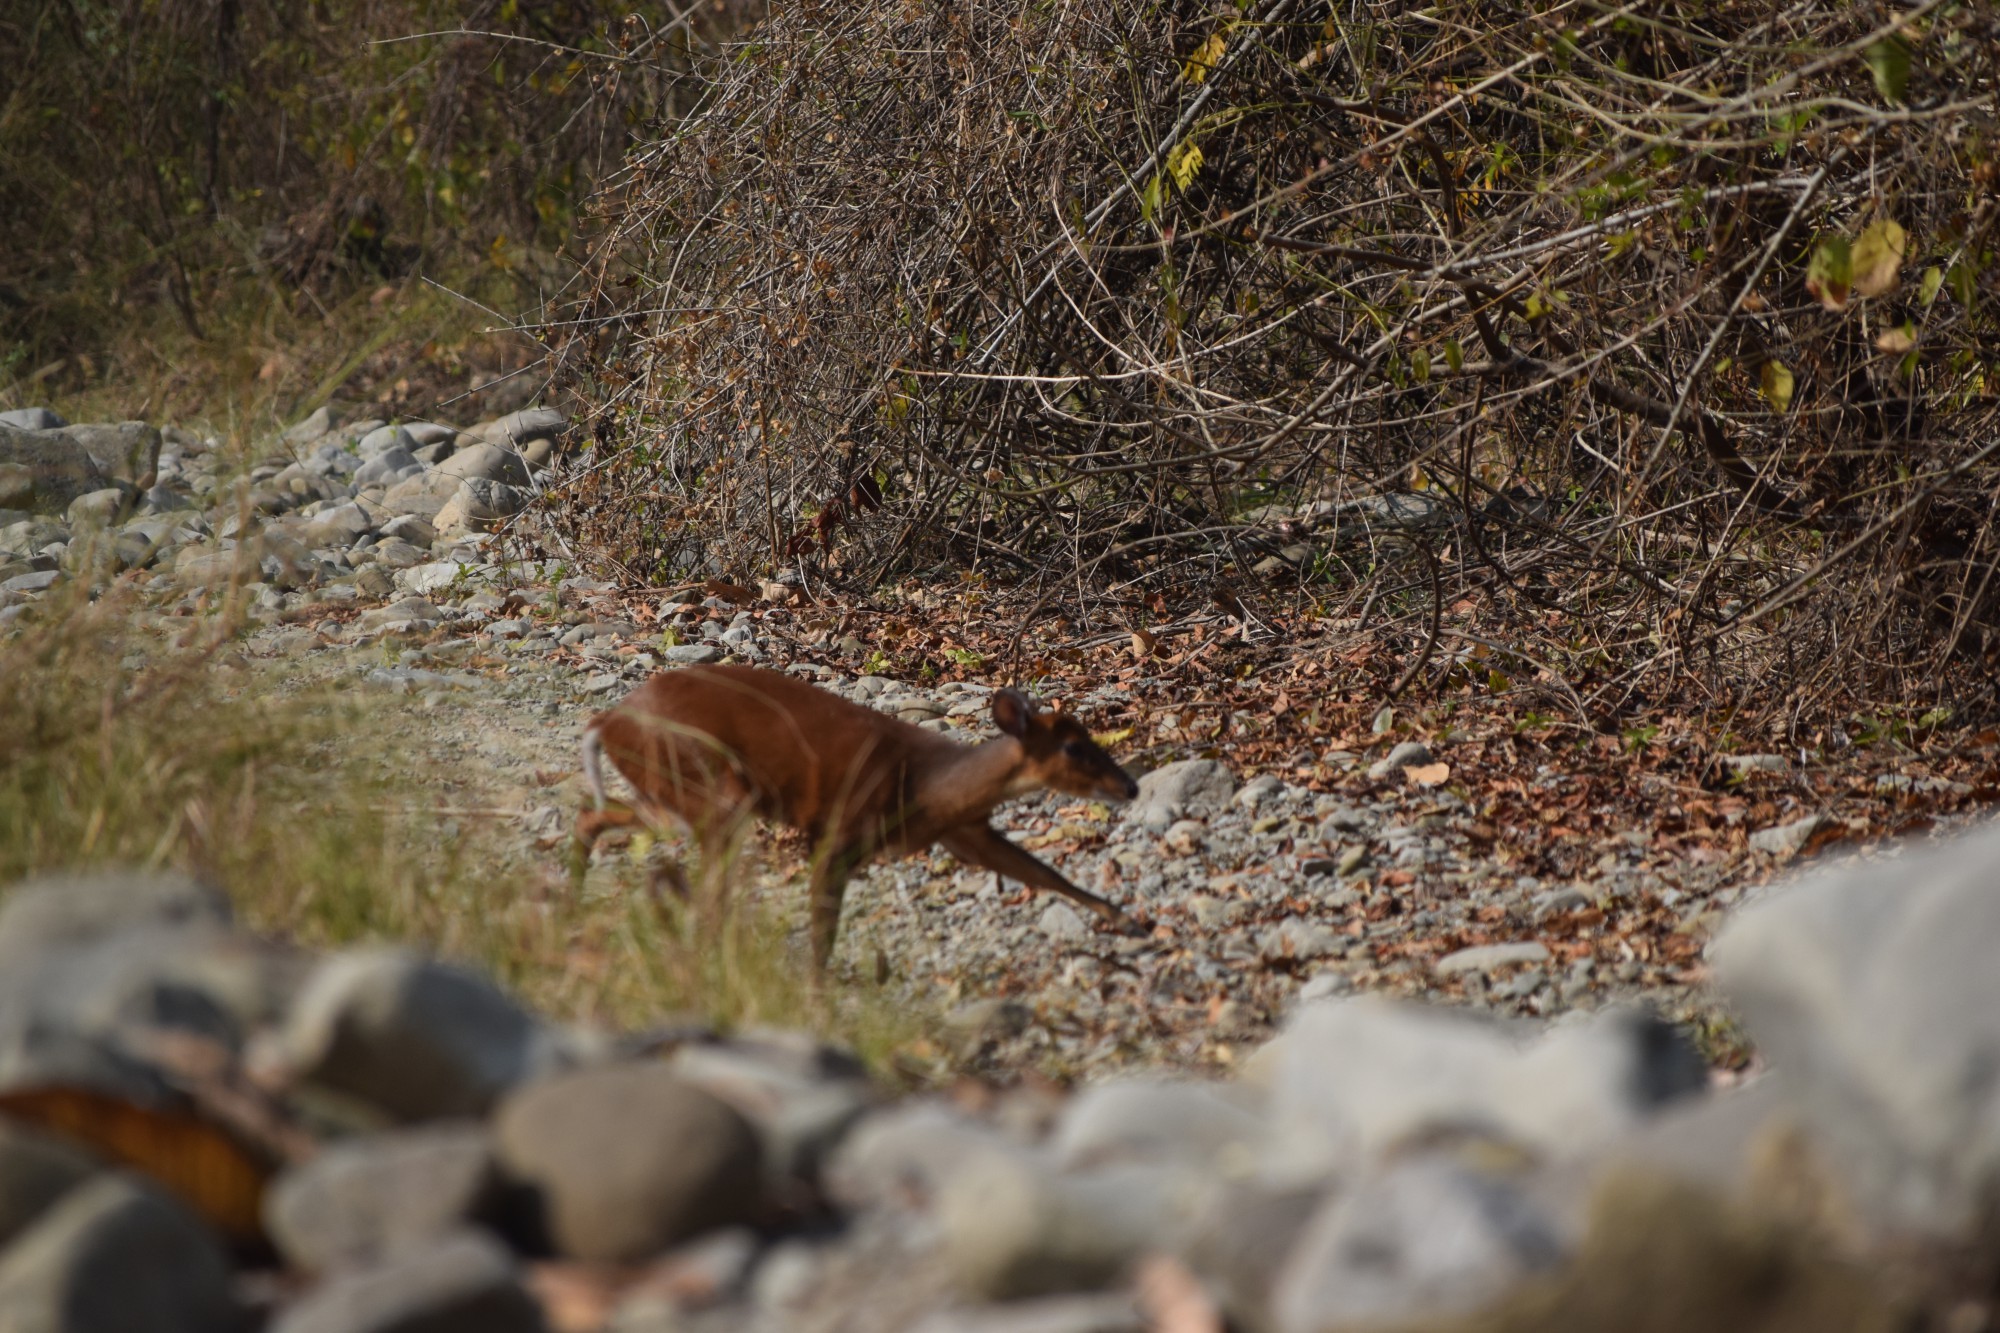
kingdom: Animalia
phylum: Chordata
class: Mammalia
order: Artiodactyla
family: Cervidae
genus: Muntiacus
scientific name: Muntiacus muntjak
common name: Indian muntjac
